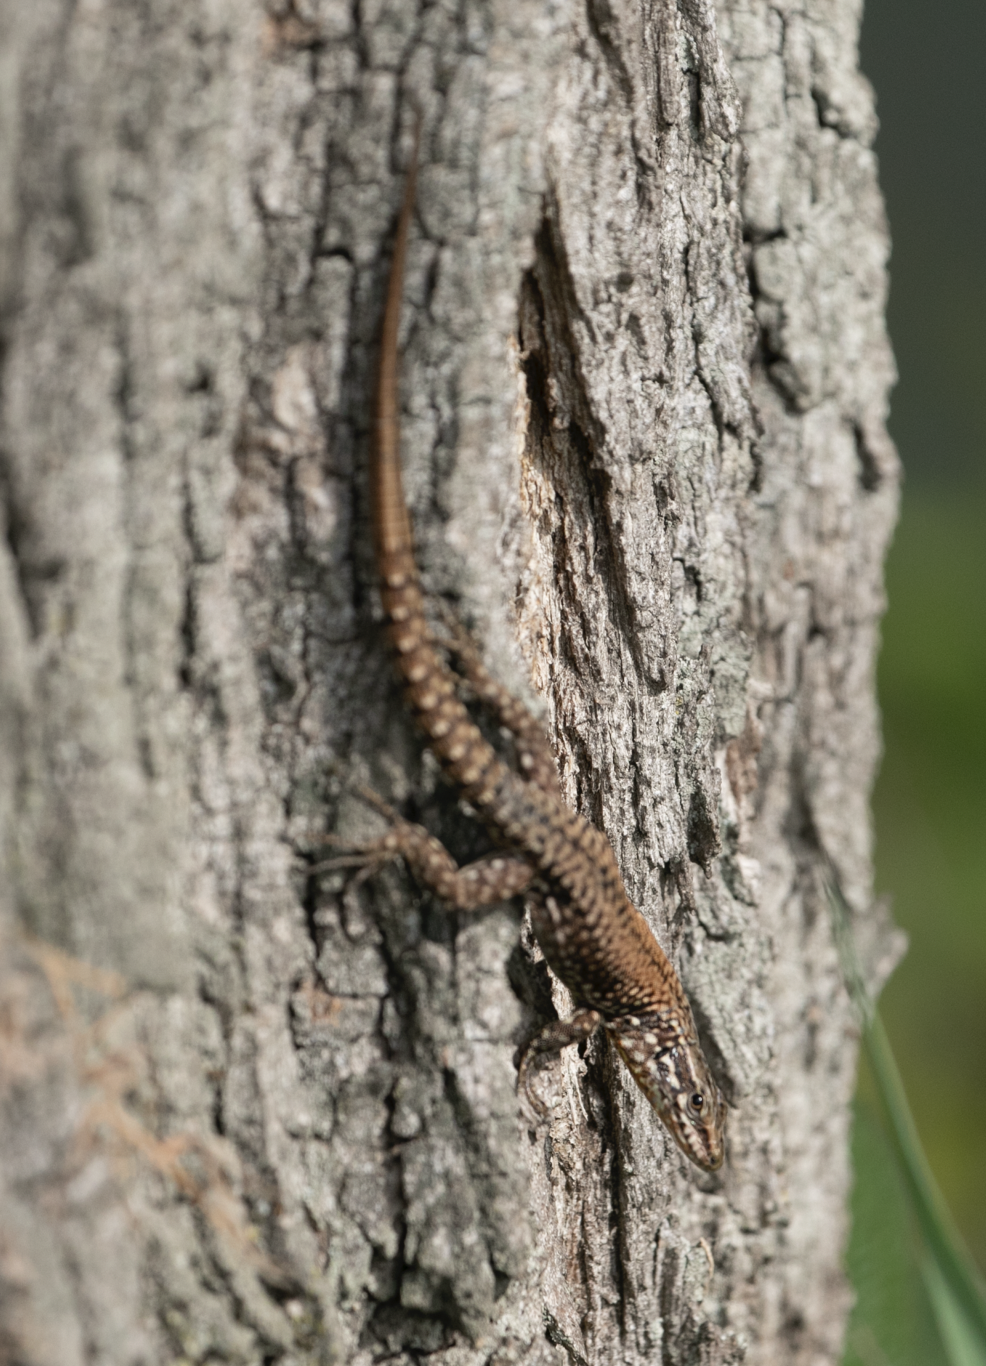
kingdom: Animalia
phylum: Chordata
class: Squamata
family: Lacertidae
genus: Podarcis
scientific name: Podarcis muralis
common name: Common wall lizard
